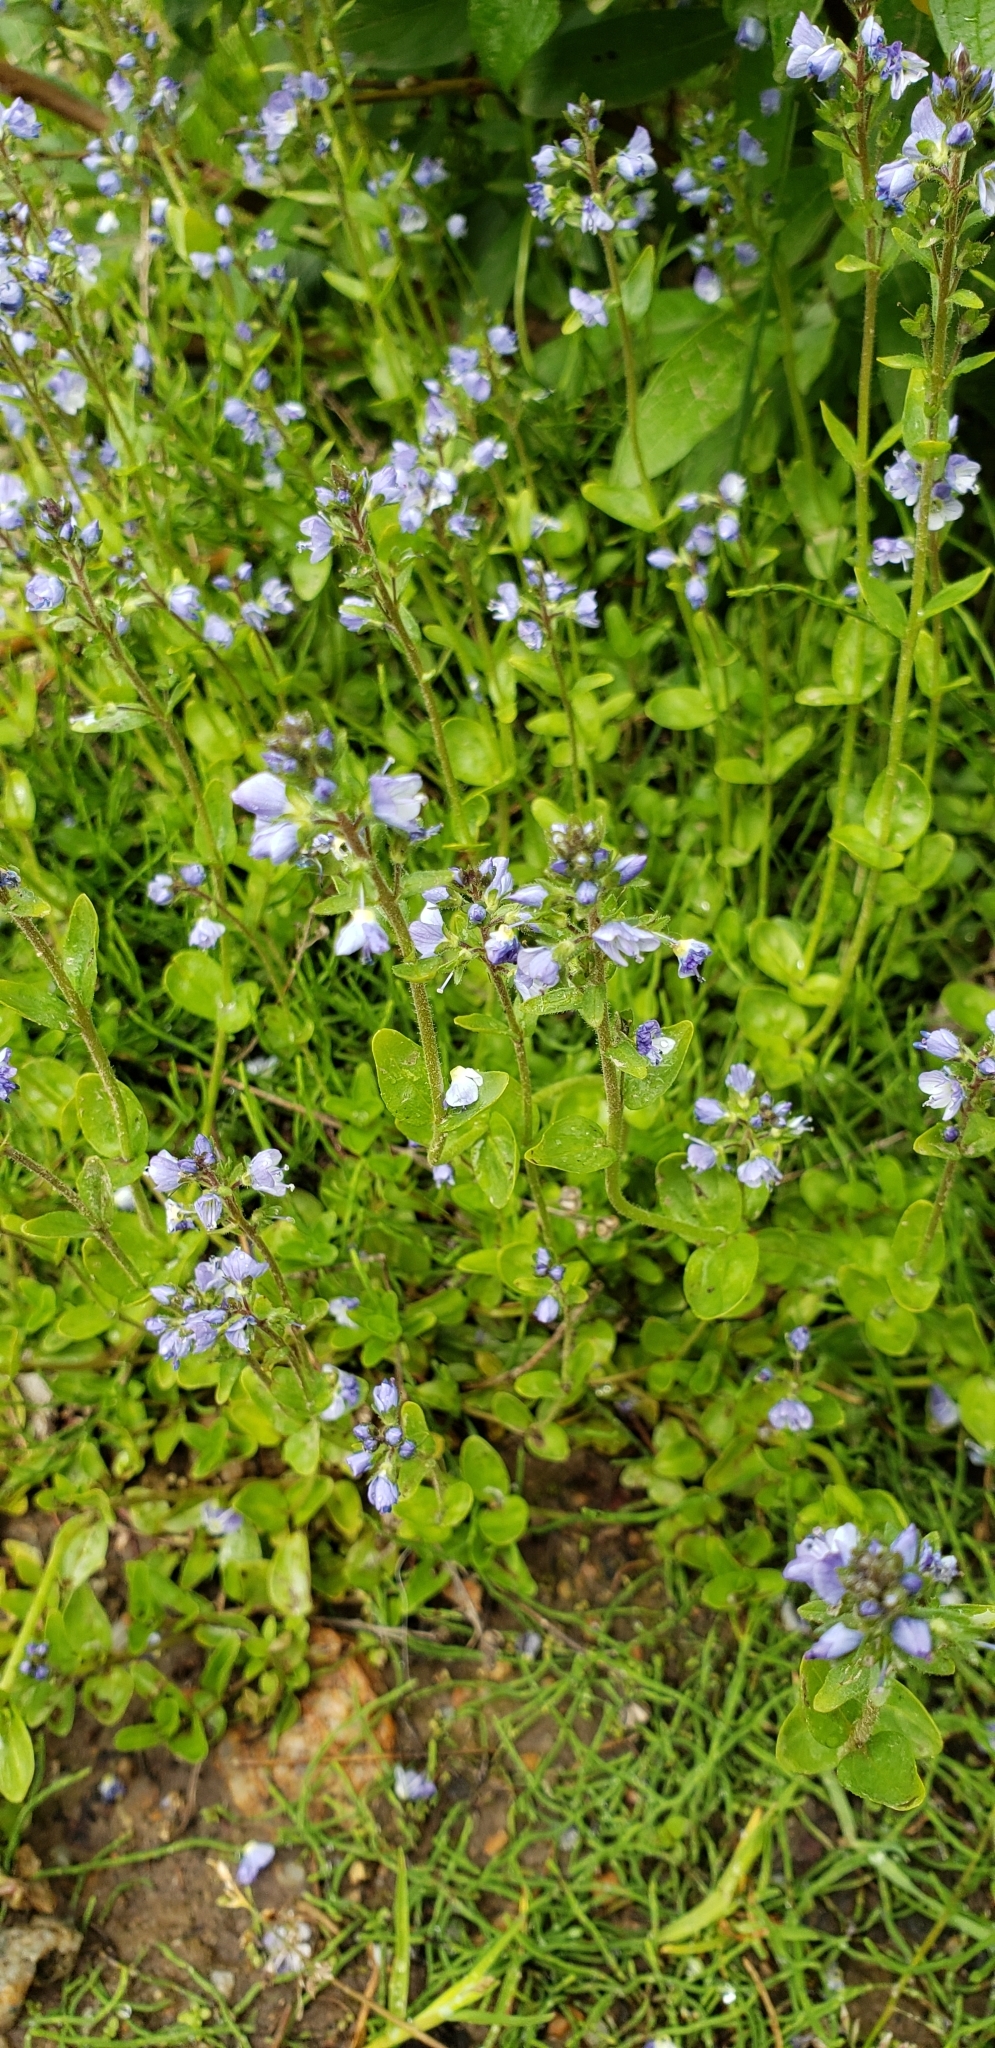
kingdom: Plantae
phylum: Tracheophyta
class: Magnoliopsida
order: Lamiales
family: Plantaginaceae
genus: Veronica
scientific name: Veronica serpyllifolia
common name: Thyme-leaved speedwell
